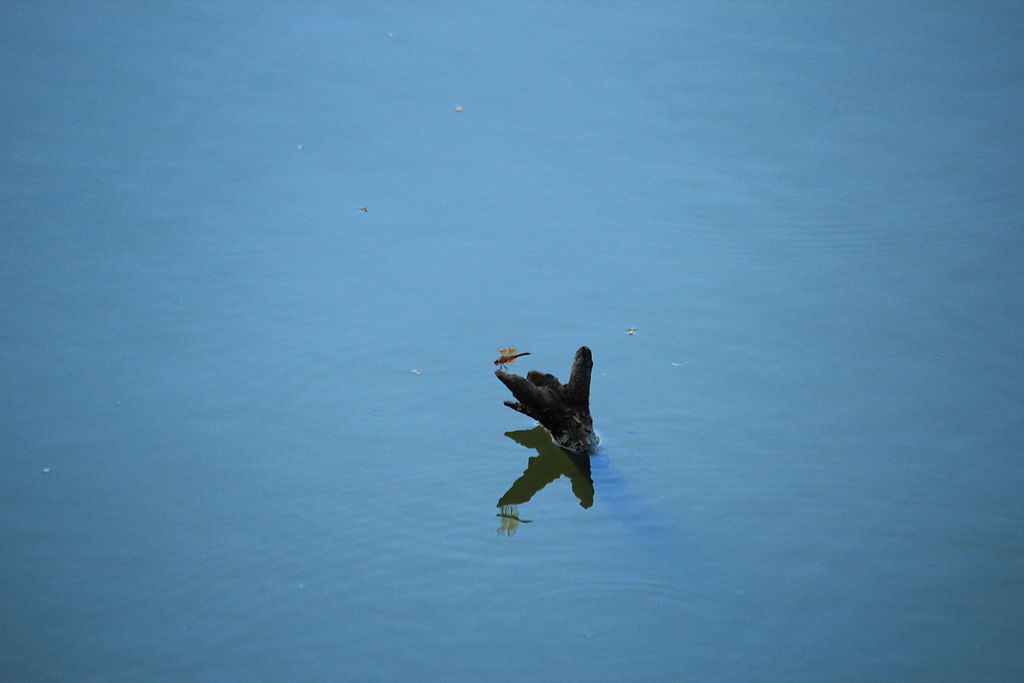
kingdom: Animalia
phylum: Arthropoda
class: Insecta
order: Odonata
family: Libellulidae
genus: Brachythemis
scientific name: Brachythemis contaminata
